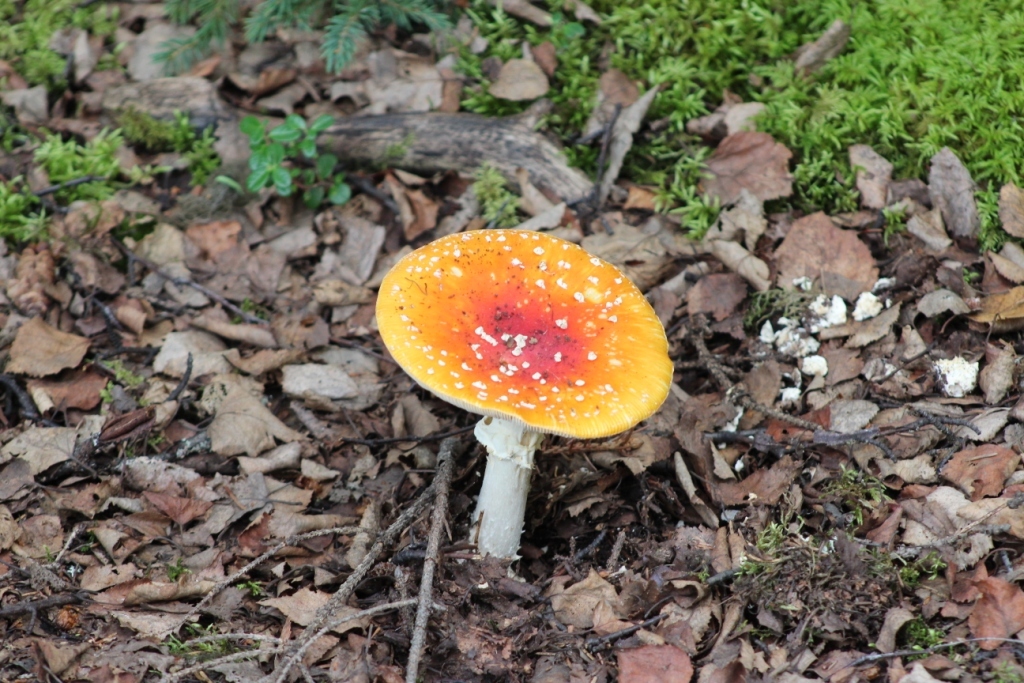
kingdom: Fungi
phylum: Basidiomycota
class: Agaricomycetes
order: Agaricales
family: Amanitaceae
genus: Amanita
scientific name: Amanita muscaria
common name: Fly agaric
